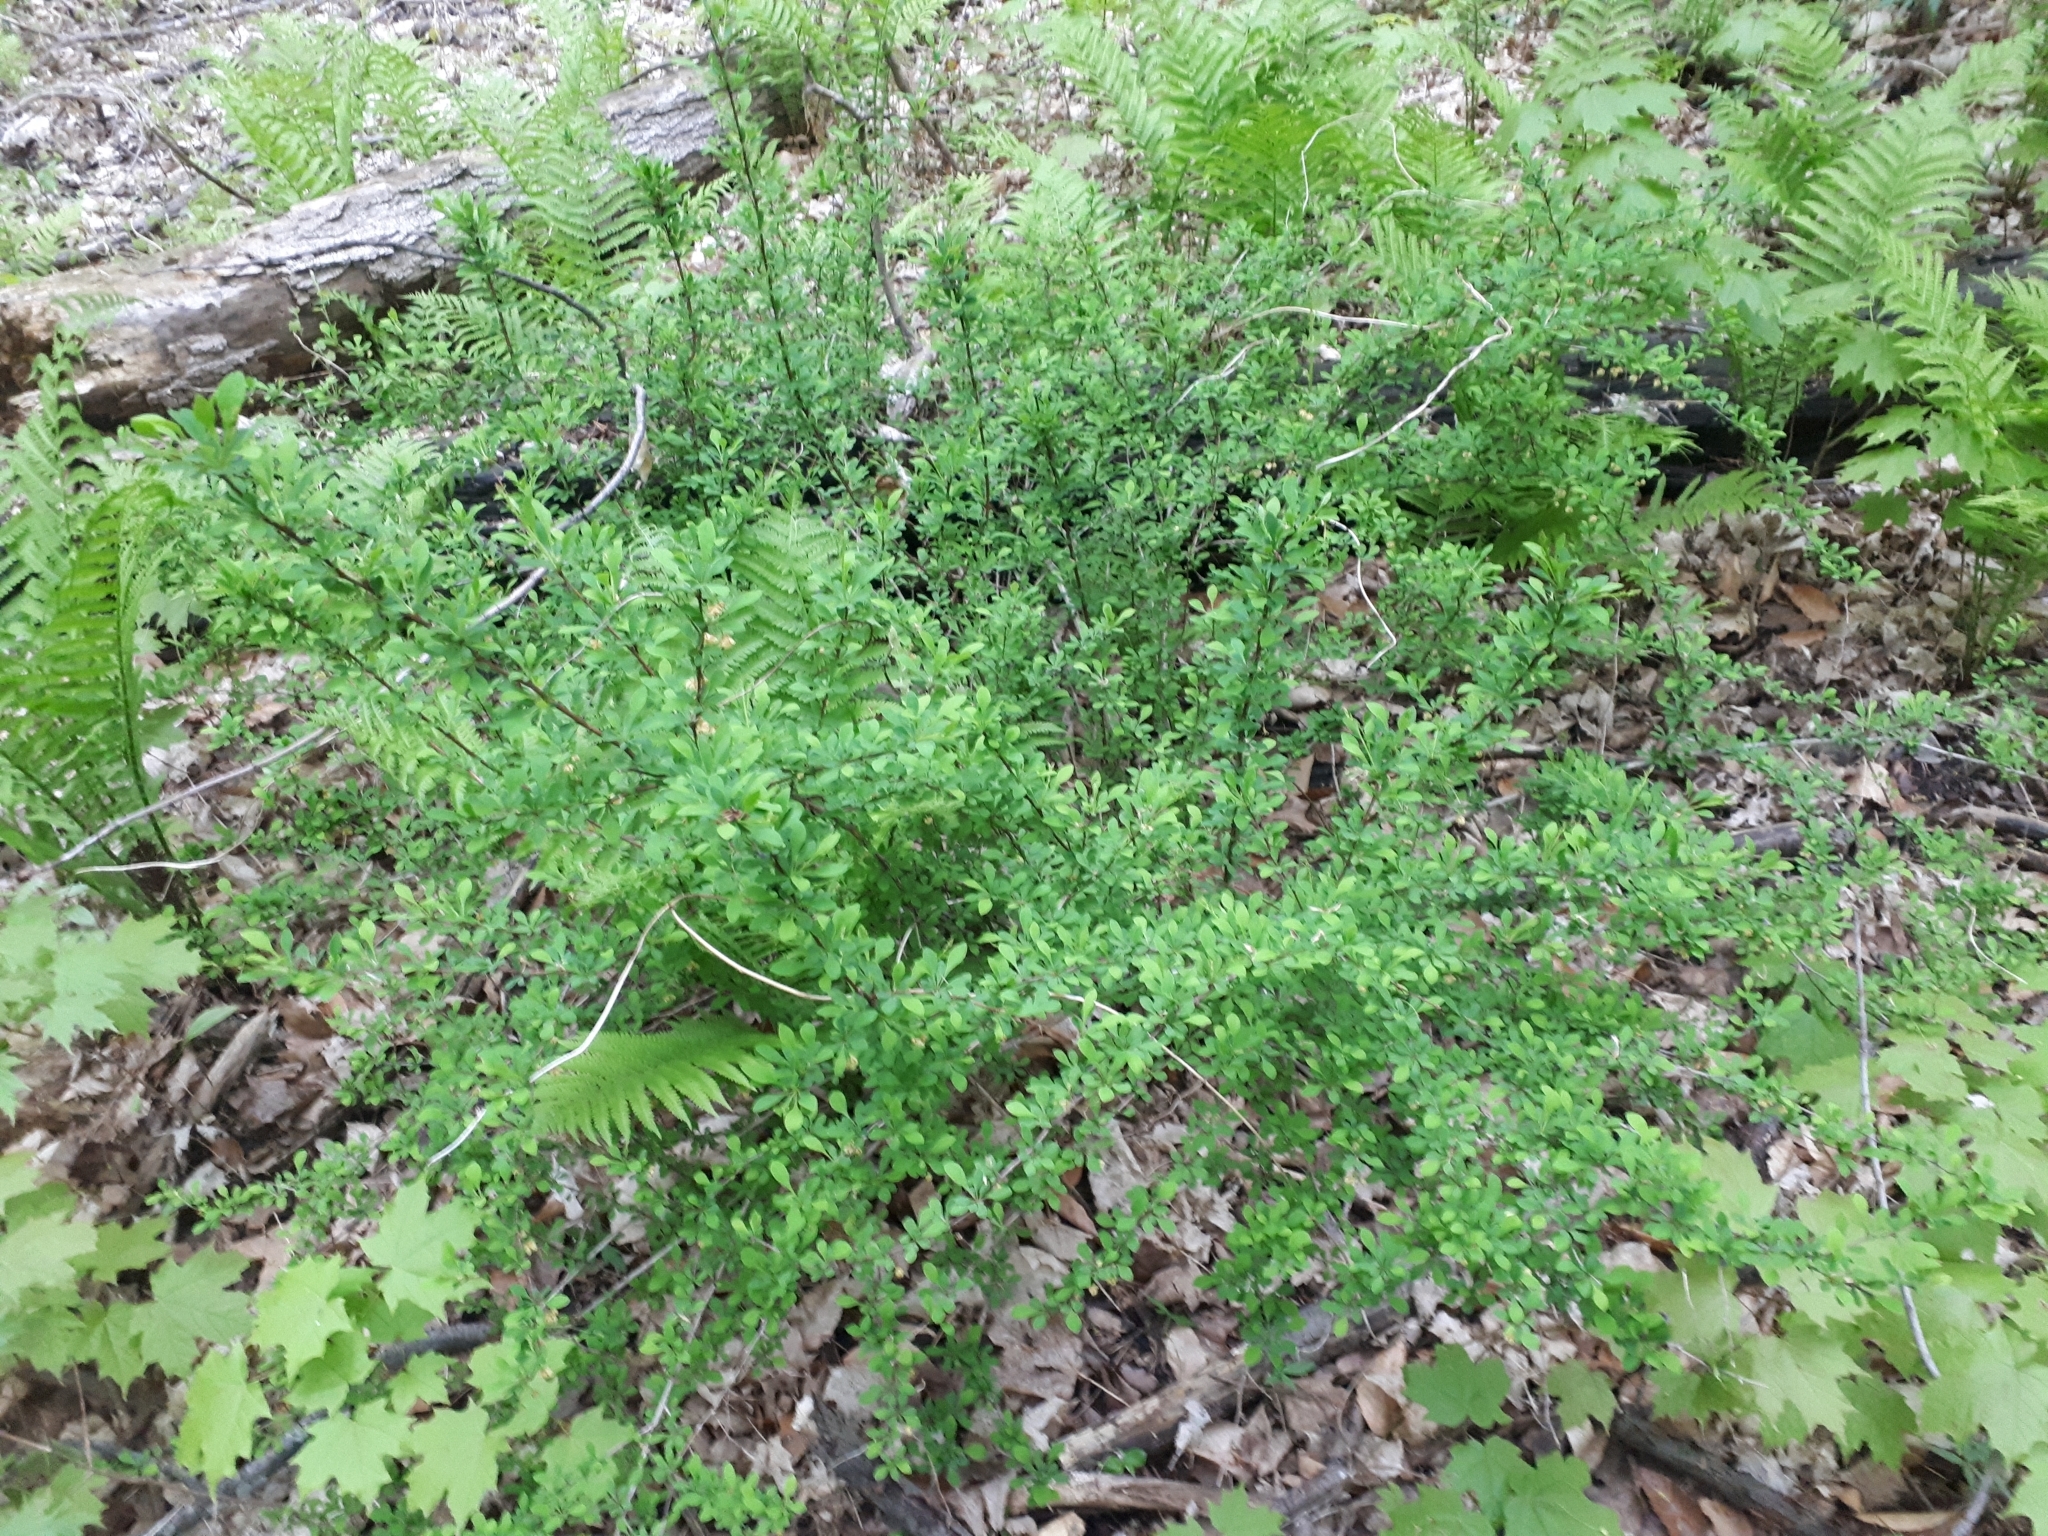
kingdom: Plantae
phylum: Tracheophyta
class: Magnoliopsida
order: Ranunculales
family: Berberidaceae
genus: Berberis
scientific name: Berberis thunbergii
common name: Japanese barberry
